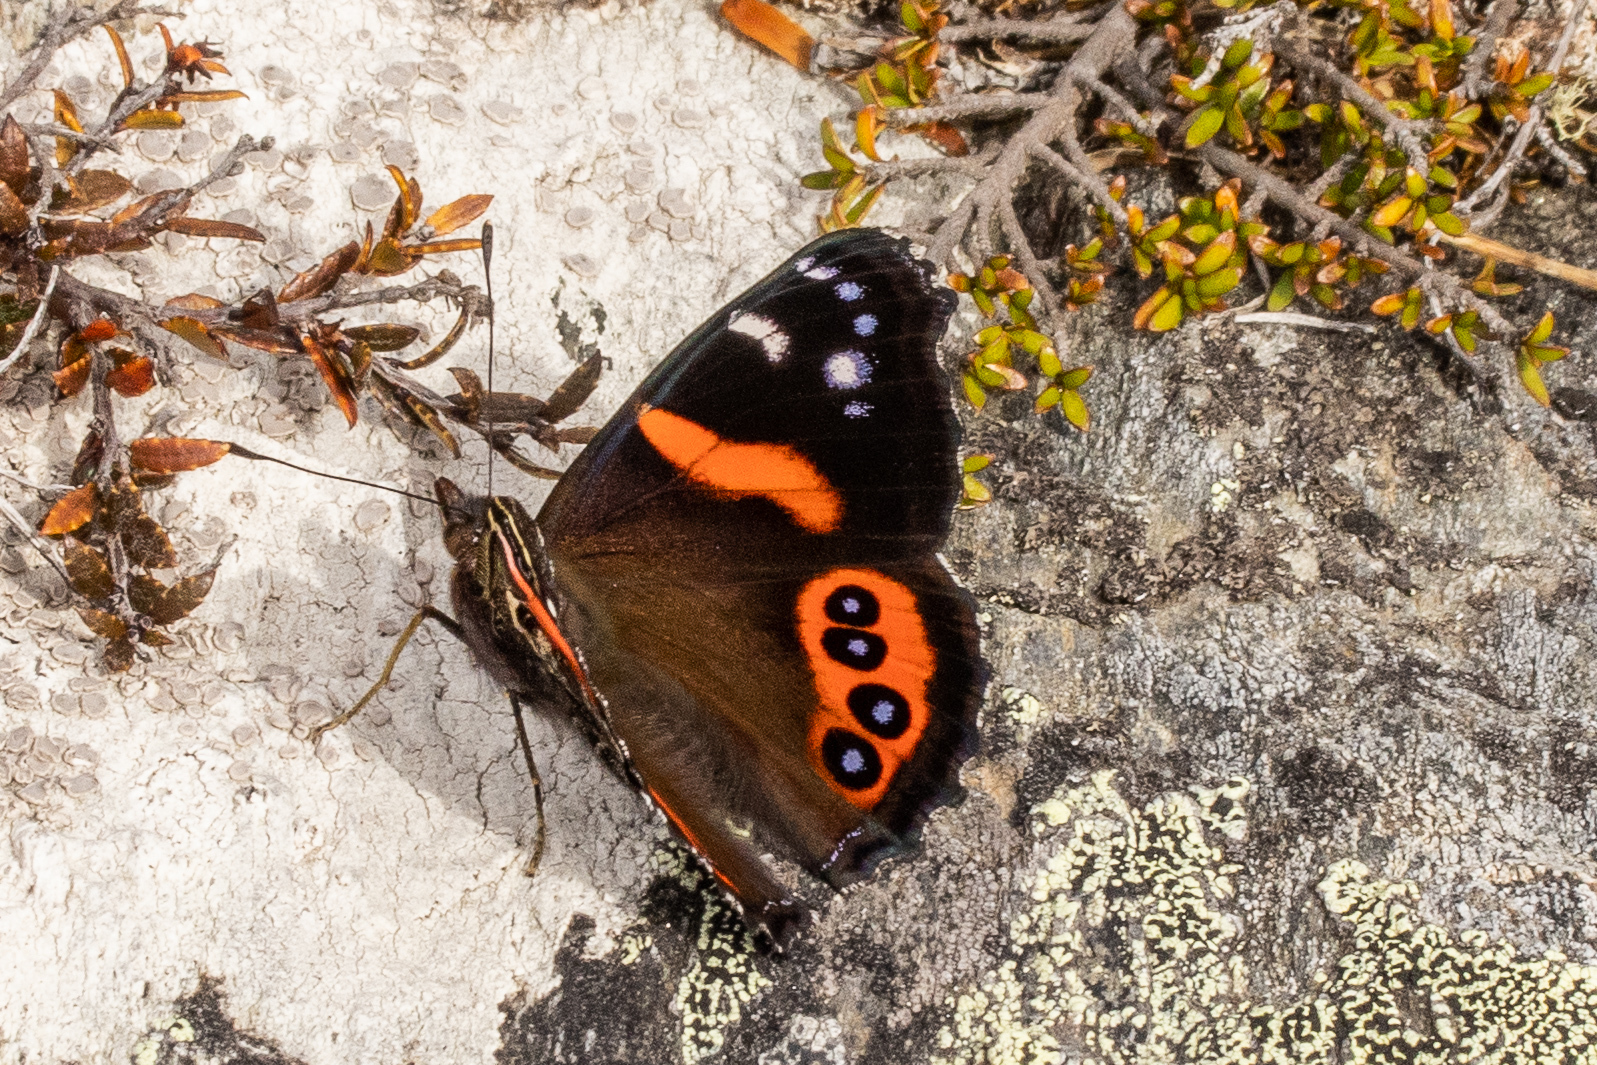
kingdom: Animalia
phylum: Arthropoda
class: Insecta
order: Lepidoptera
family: Nymphalidae
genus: Vanessa
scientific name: Vanessa gonerilla
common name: New zealand red admiral
